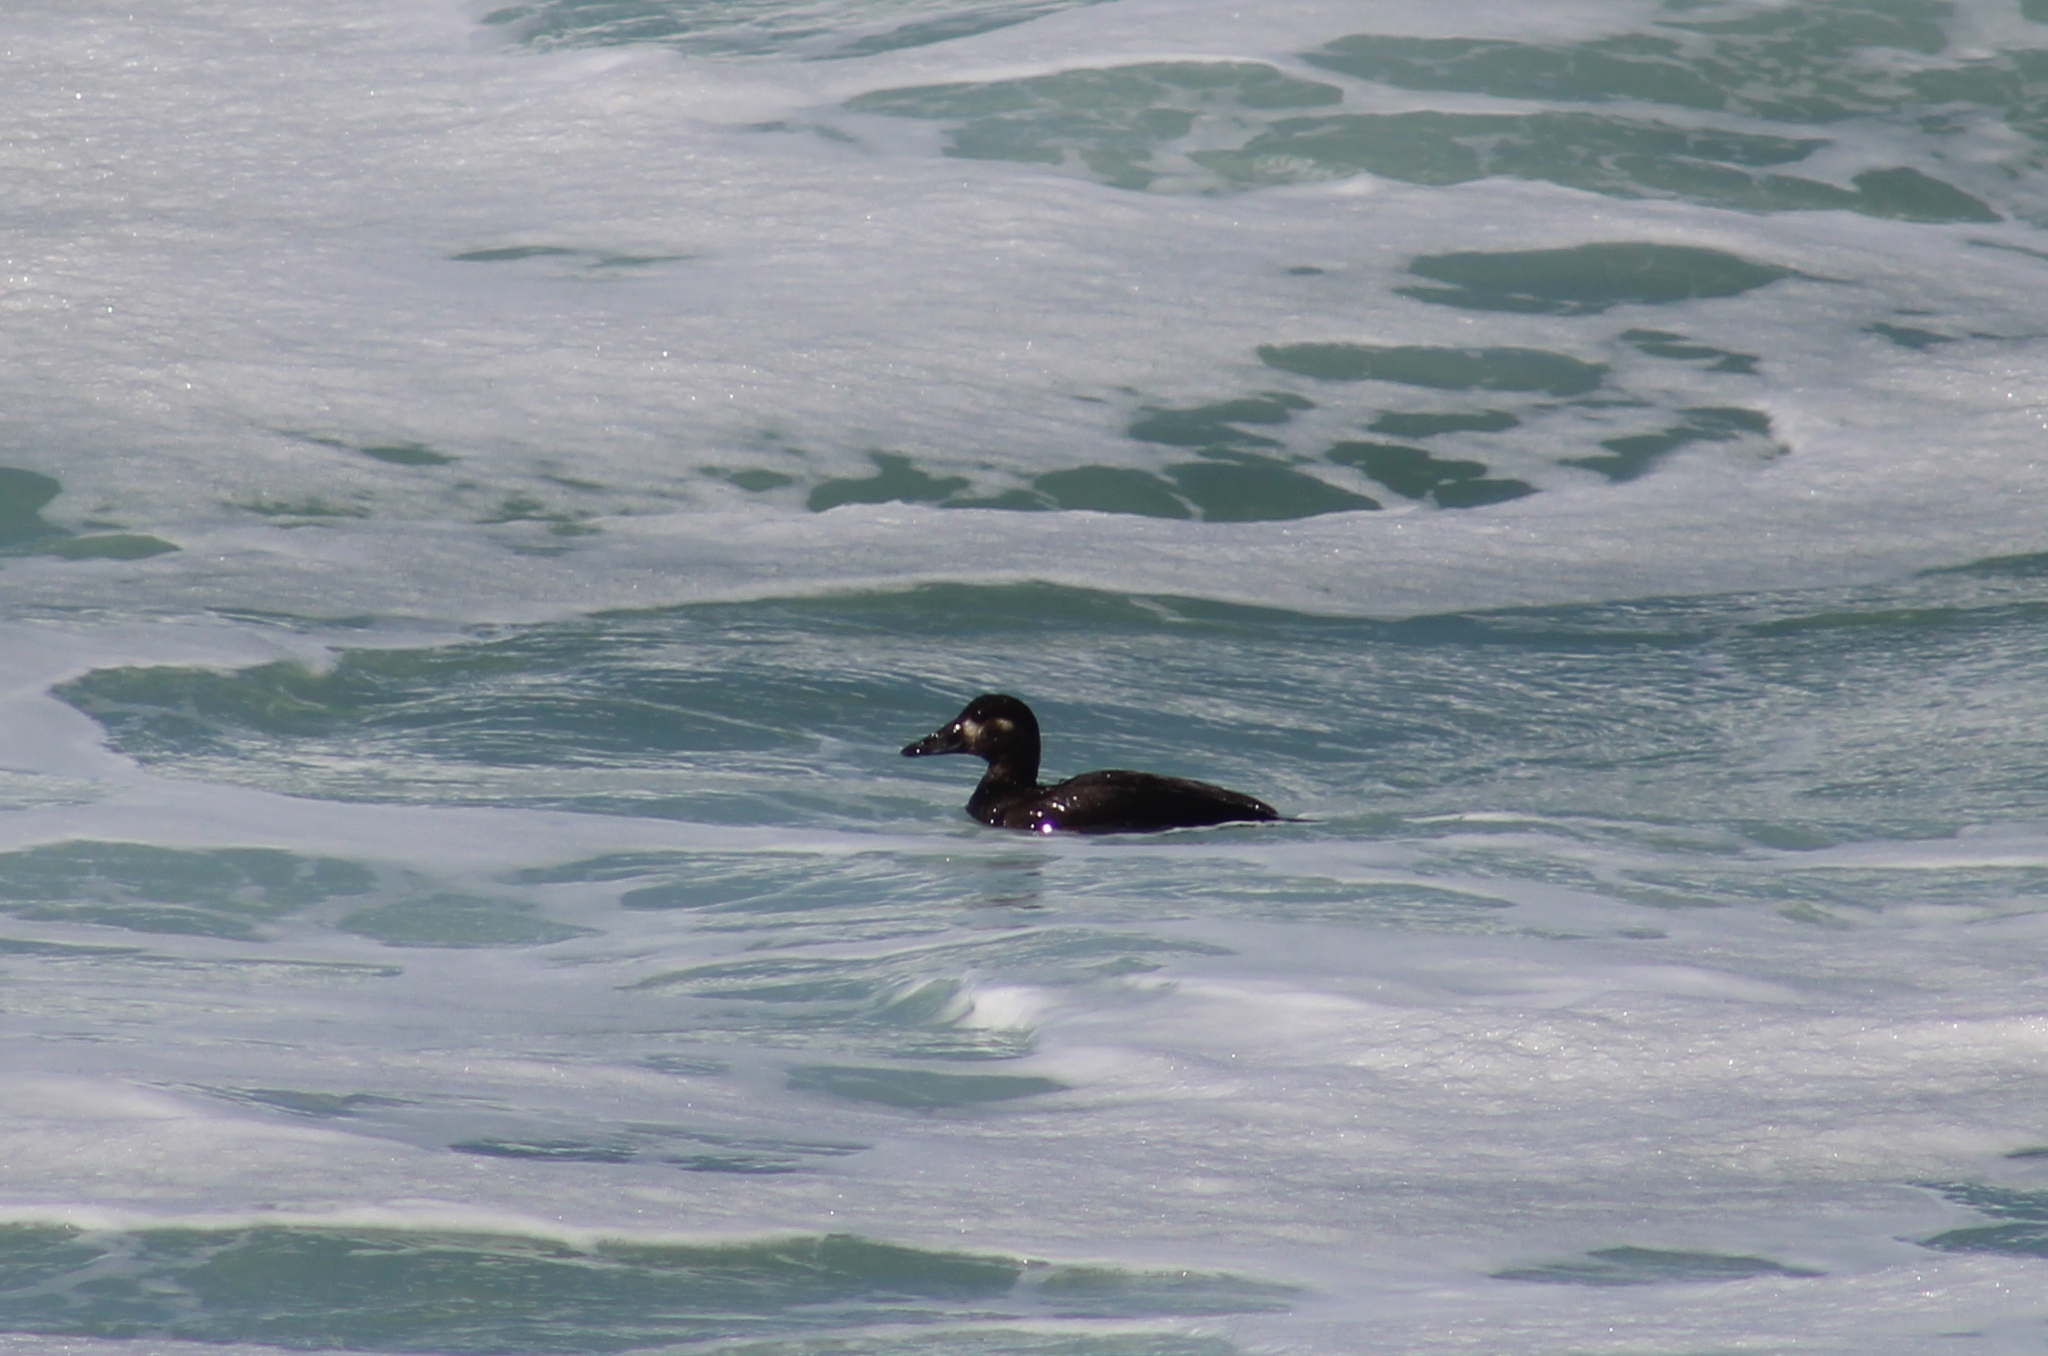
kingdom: Animalia
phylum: Chordata
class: Aves
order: Anseriformes
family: Anatidae
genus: Melanitta
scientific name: Melanitta perspicillata
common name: Surf scoter
